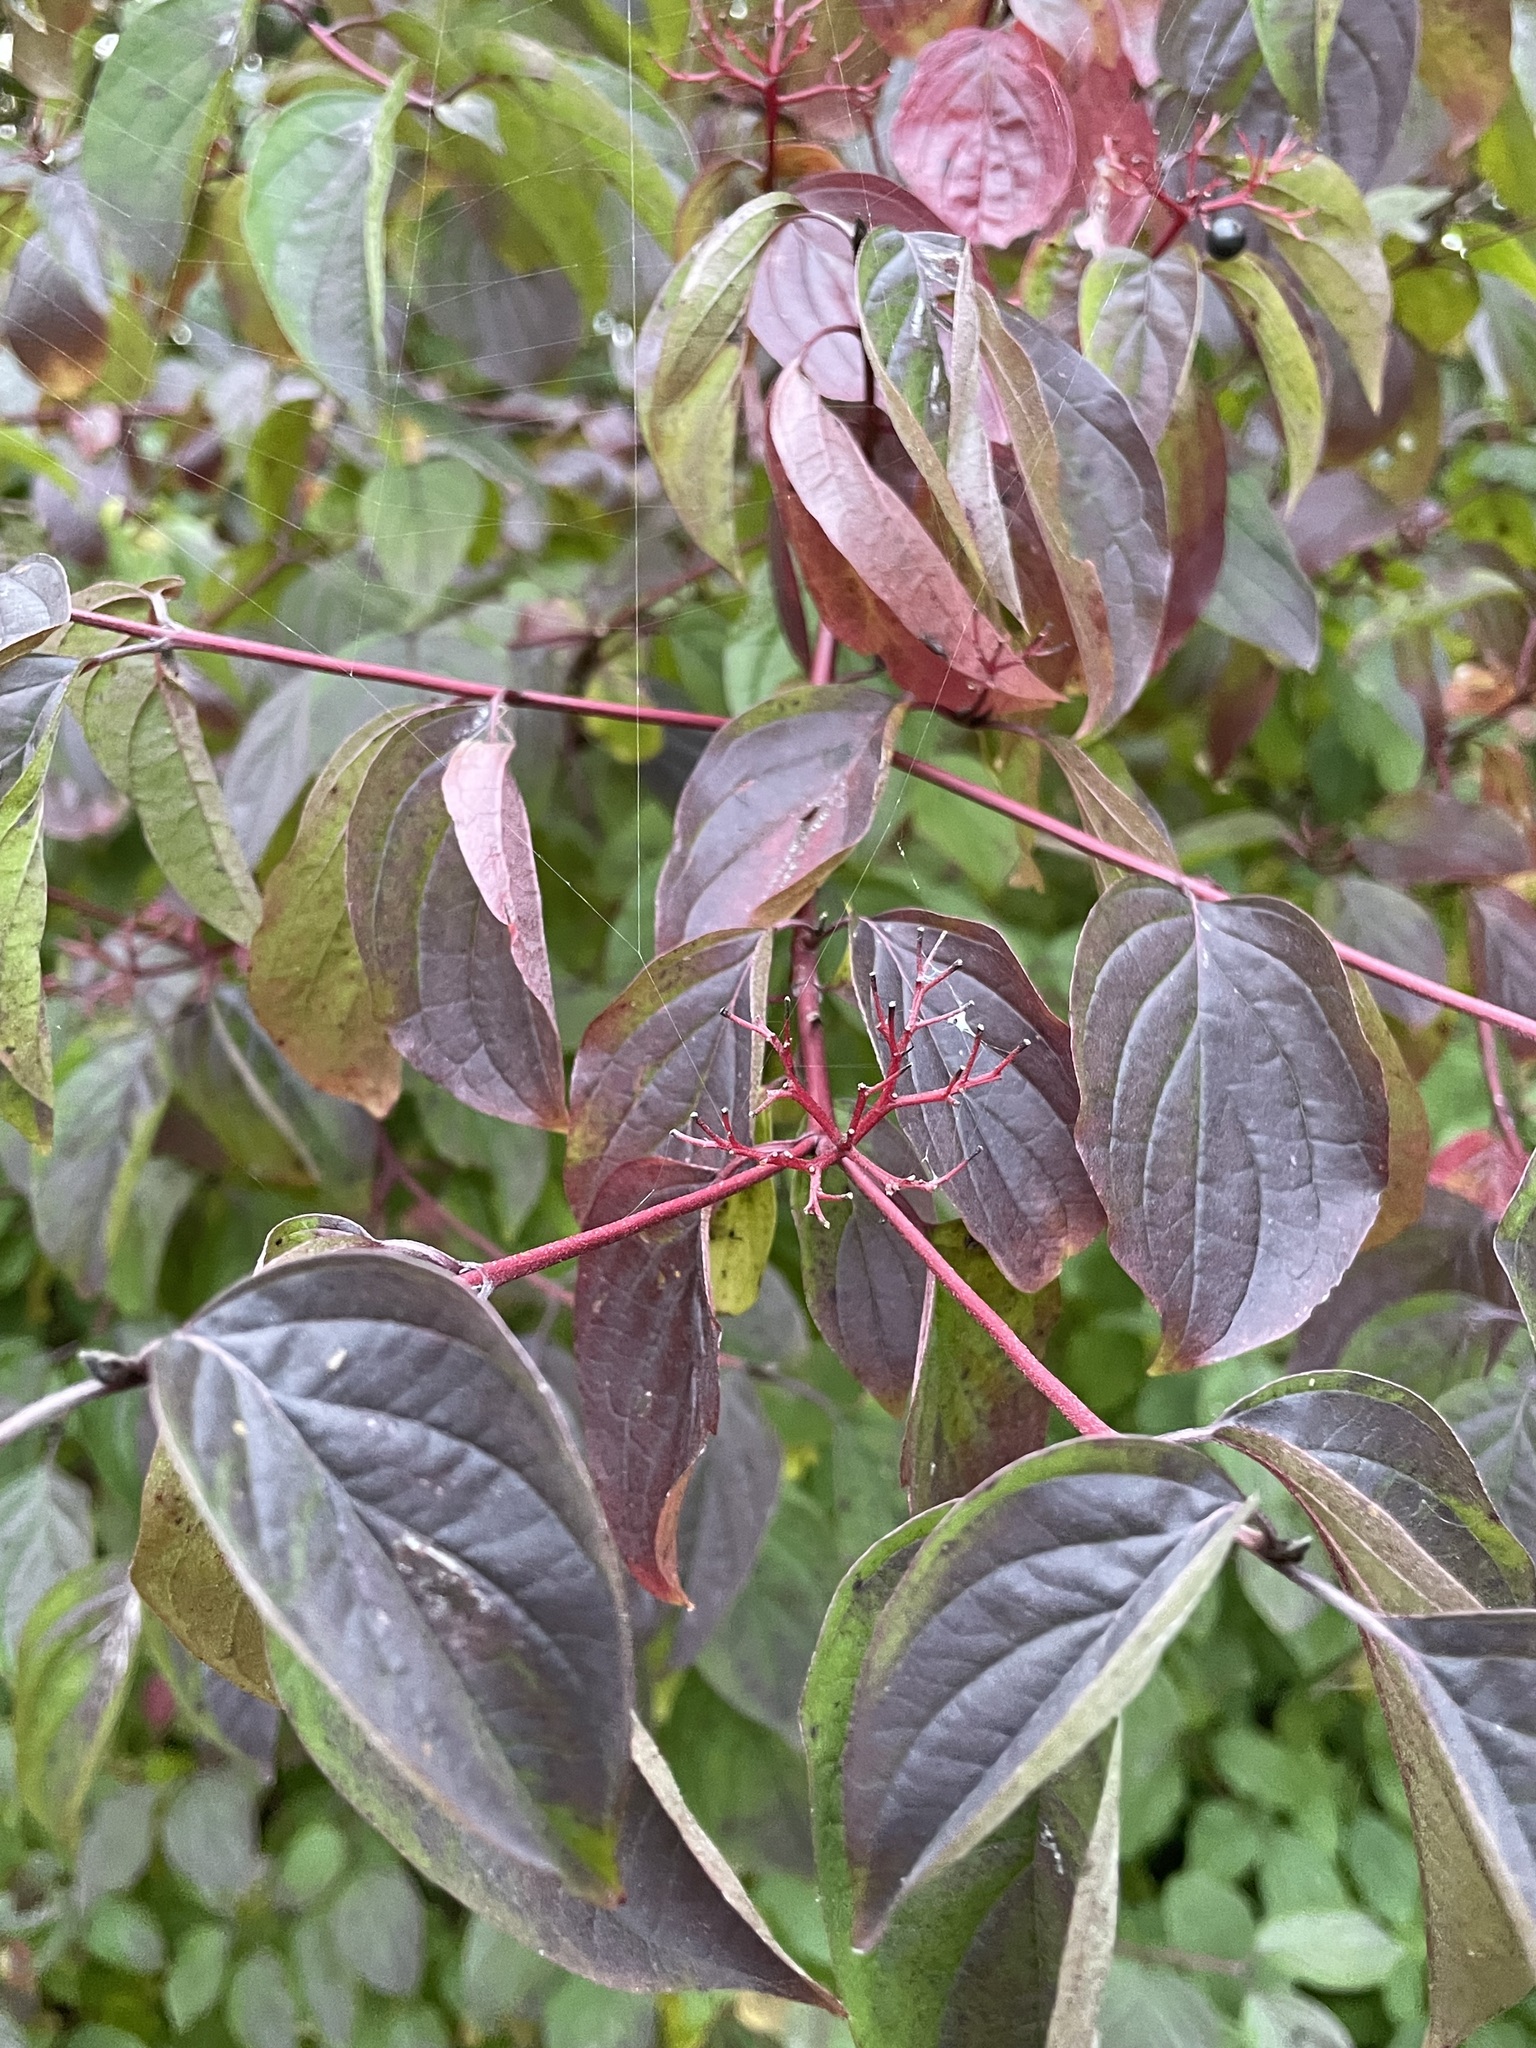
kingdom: Plantae
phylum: Tracheophyta
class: Magnoliopsida
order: Cornales
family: Cornaceae
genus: Cornus
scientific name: Cornus sanguinea
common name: Dogwood
